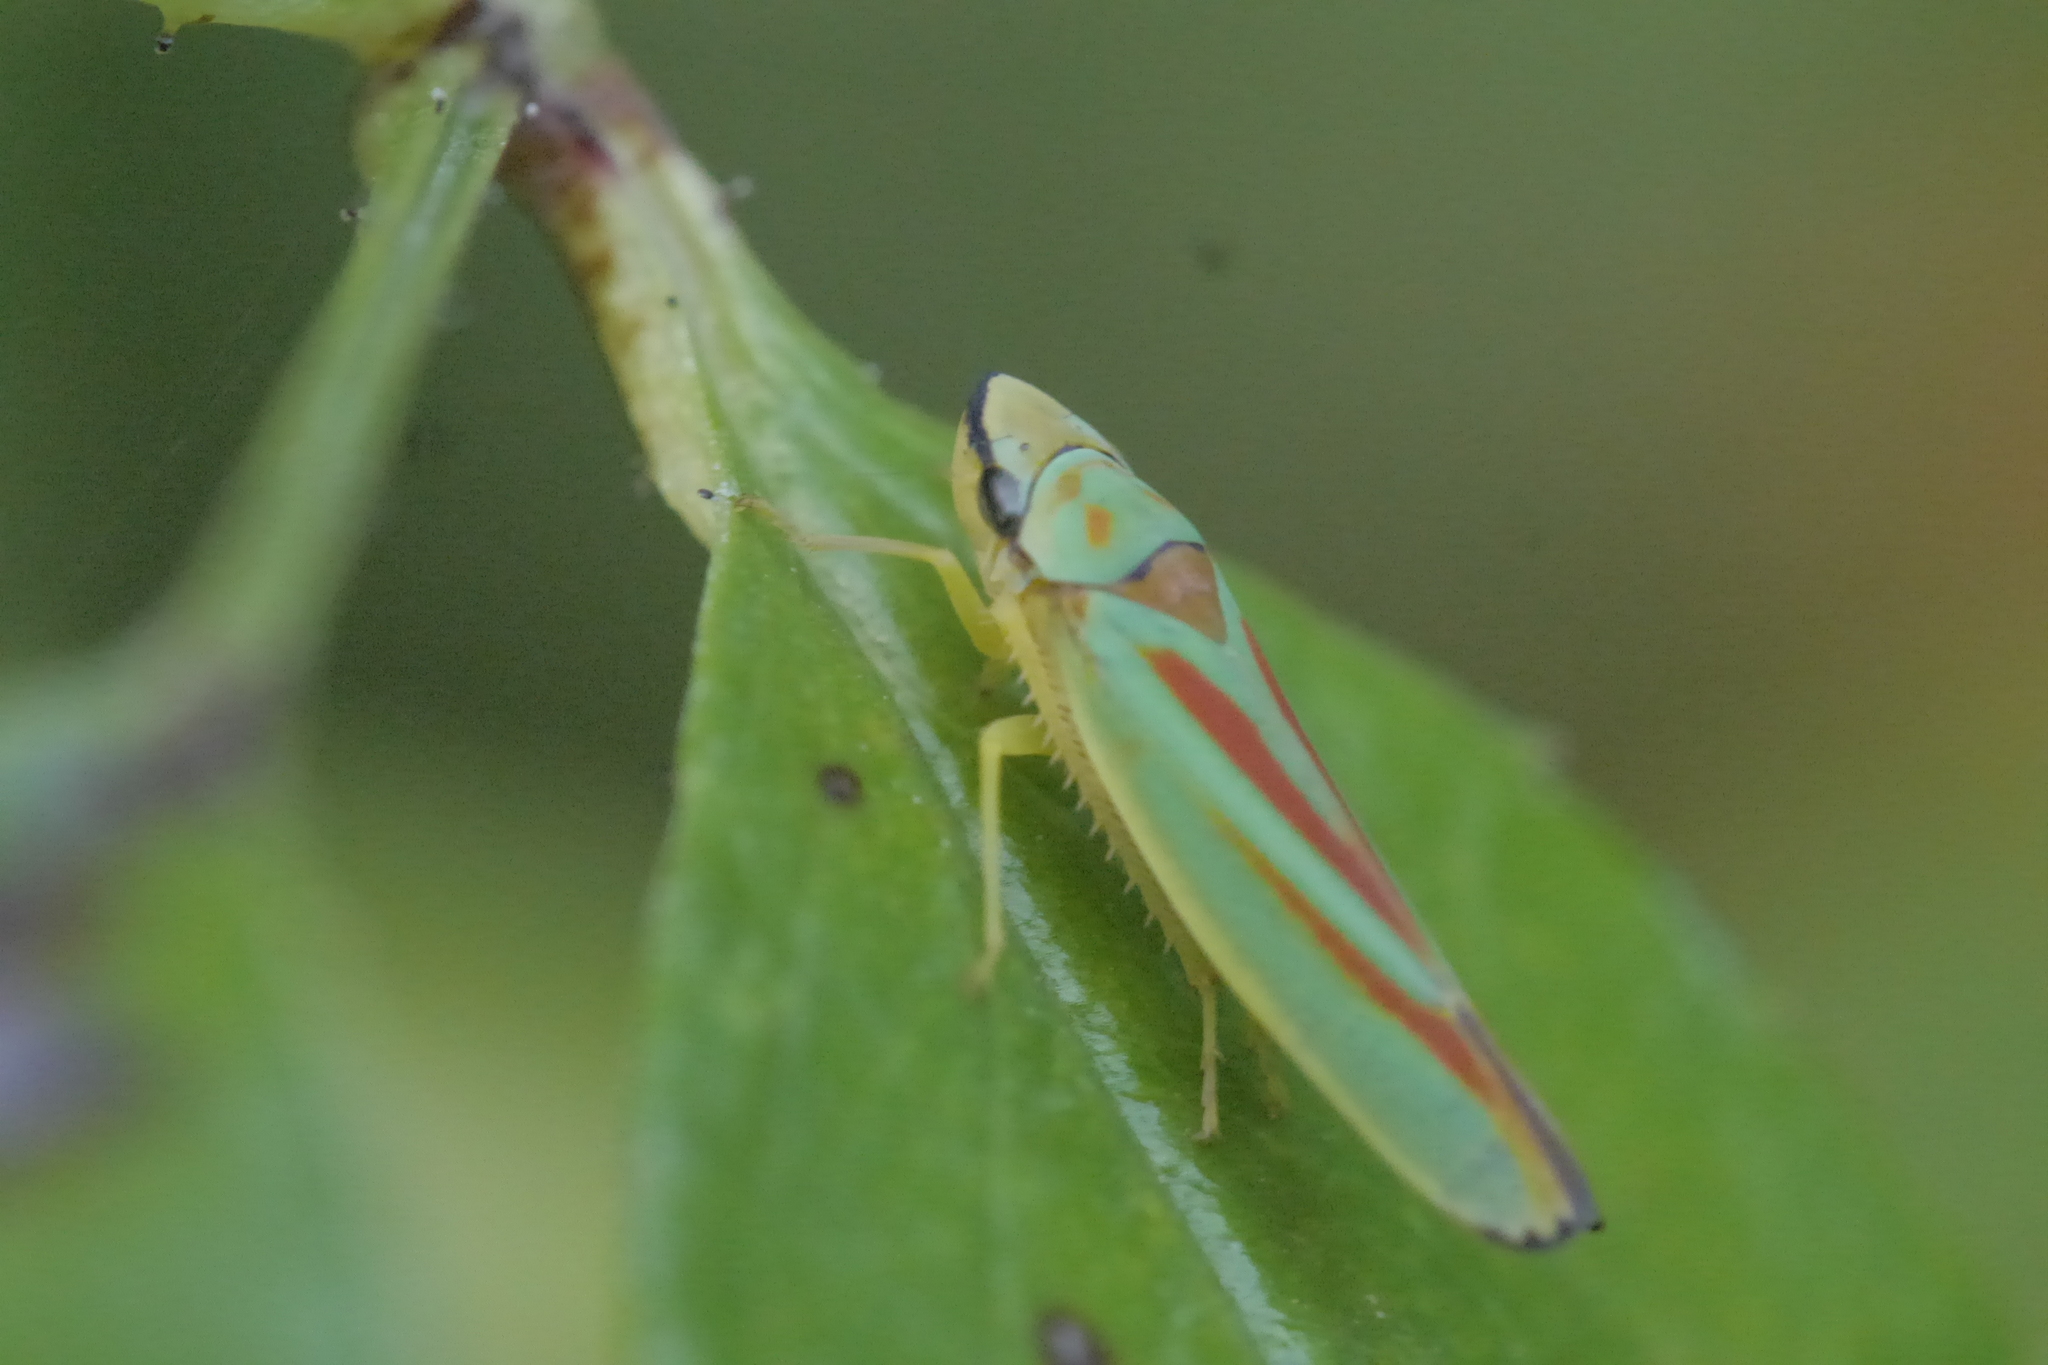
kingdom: Animalia
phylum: Arthropoda
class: Insecta
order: Hemiptera
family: Cicadellidae
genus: Graphocephala
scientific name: Graphocephala fennahi
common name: Rhododendron leafhopper
